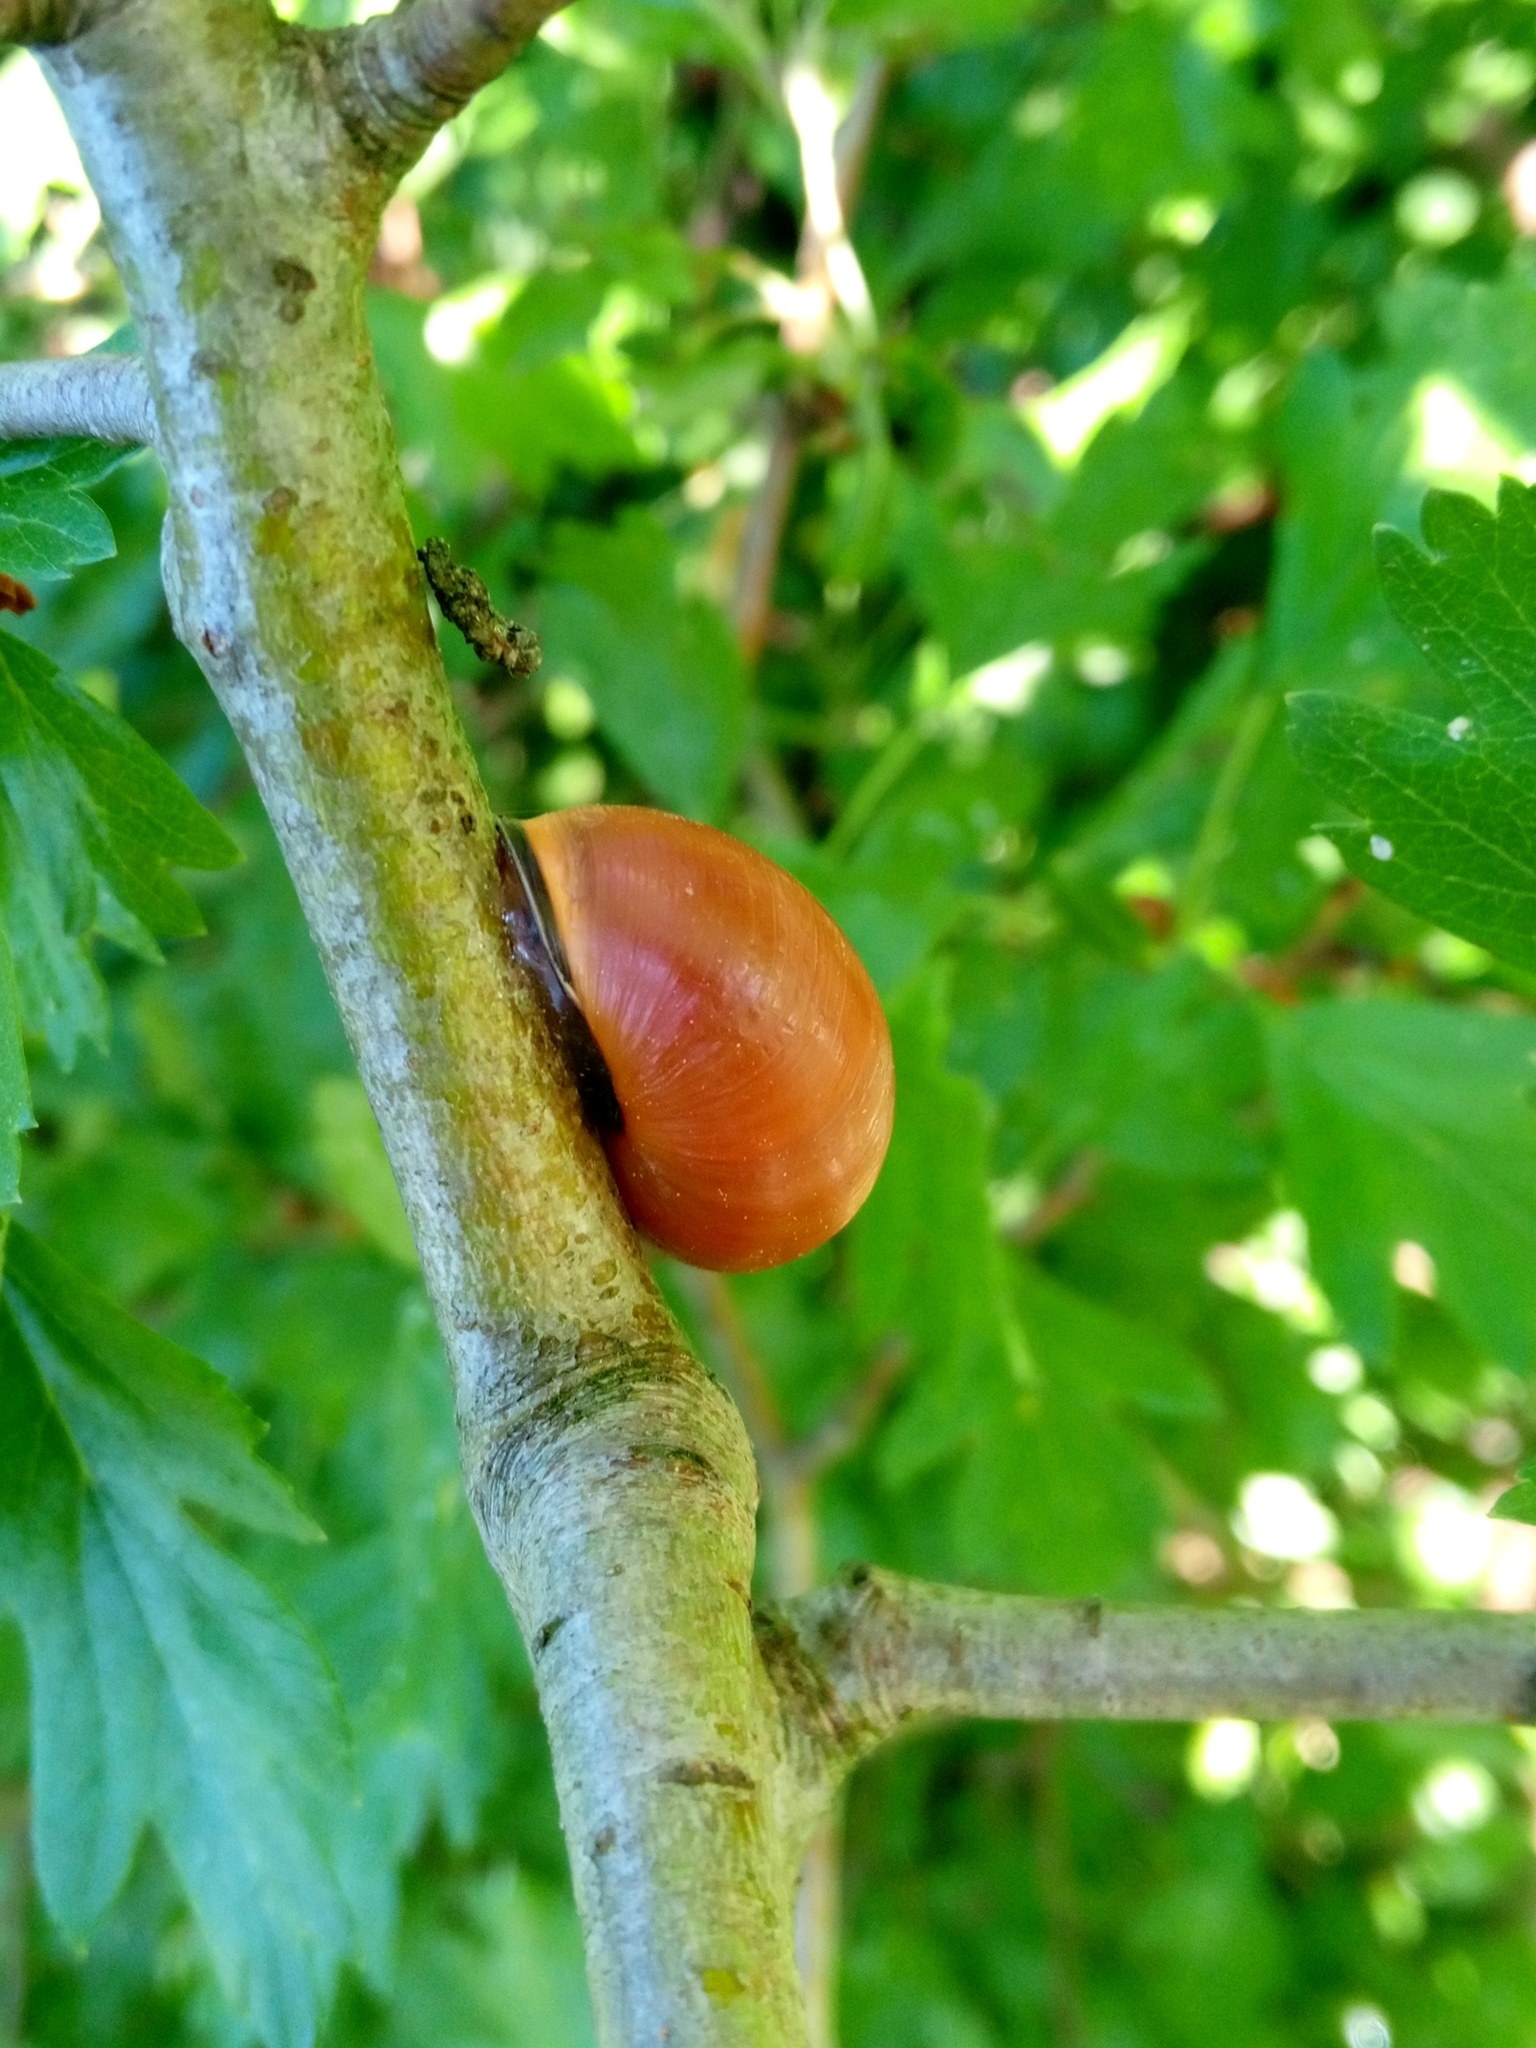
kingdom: Animalia
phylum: Mollusca
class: Gastropoda
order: Stylommatophora
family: Helicidae
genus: Cepaea
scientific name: Cepaea nemoralis
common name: Grovesnail
